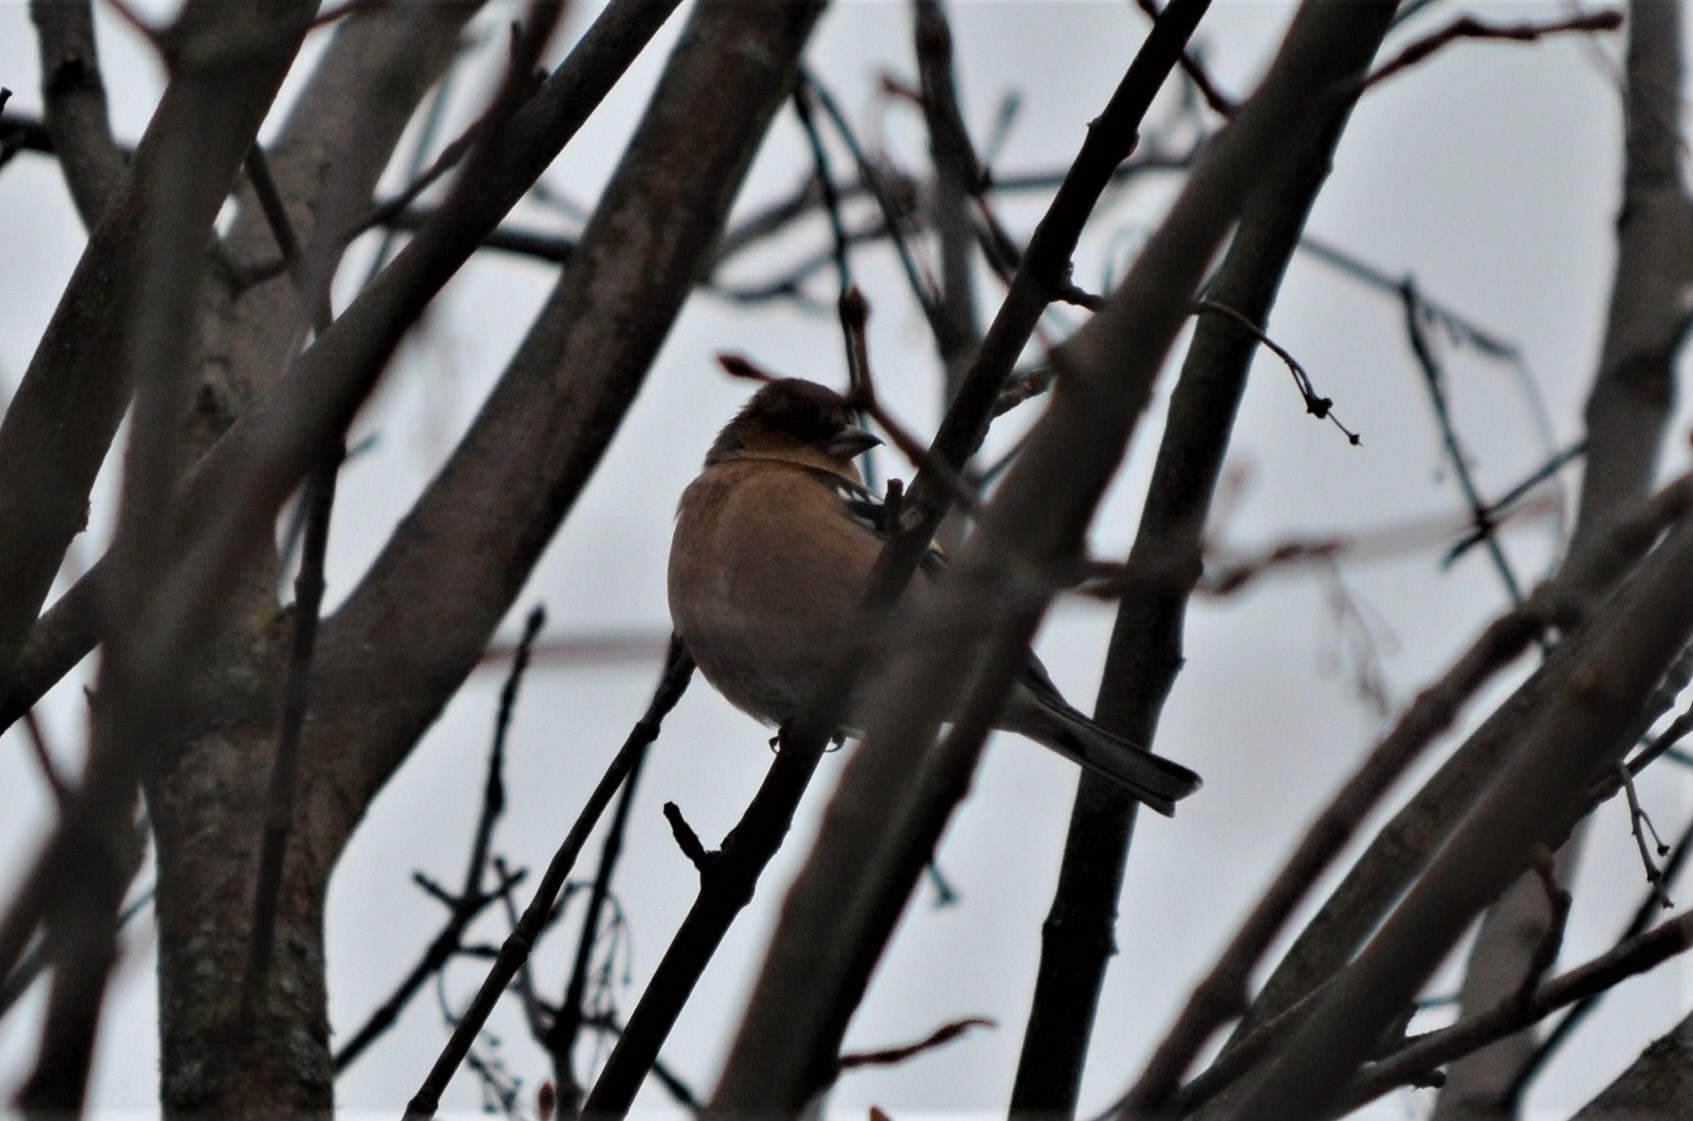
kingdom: Animalia
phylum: Chordata
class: Aves
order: Passeriformes
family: Fringillidae
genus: Fringilla
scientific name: Fringilla coelebs
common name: Common chaffinch
